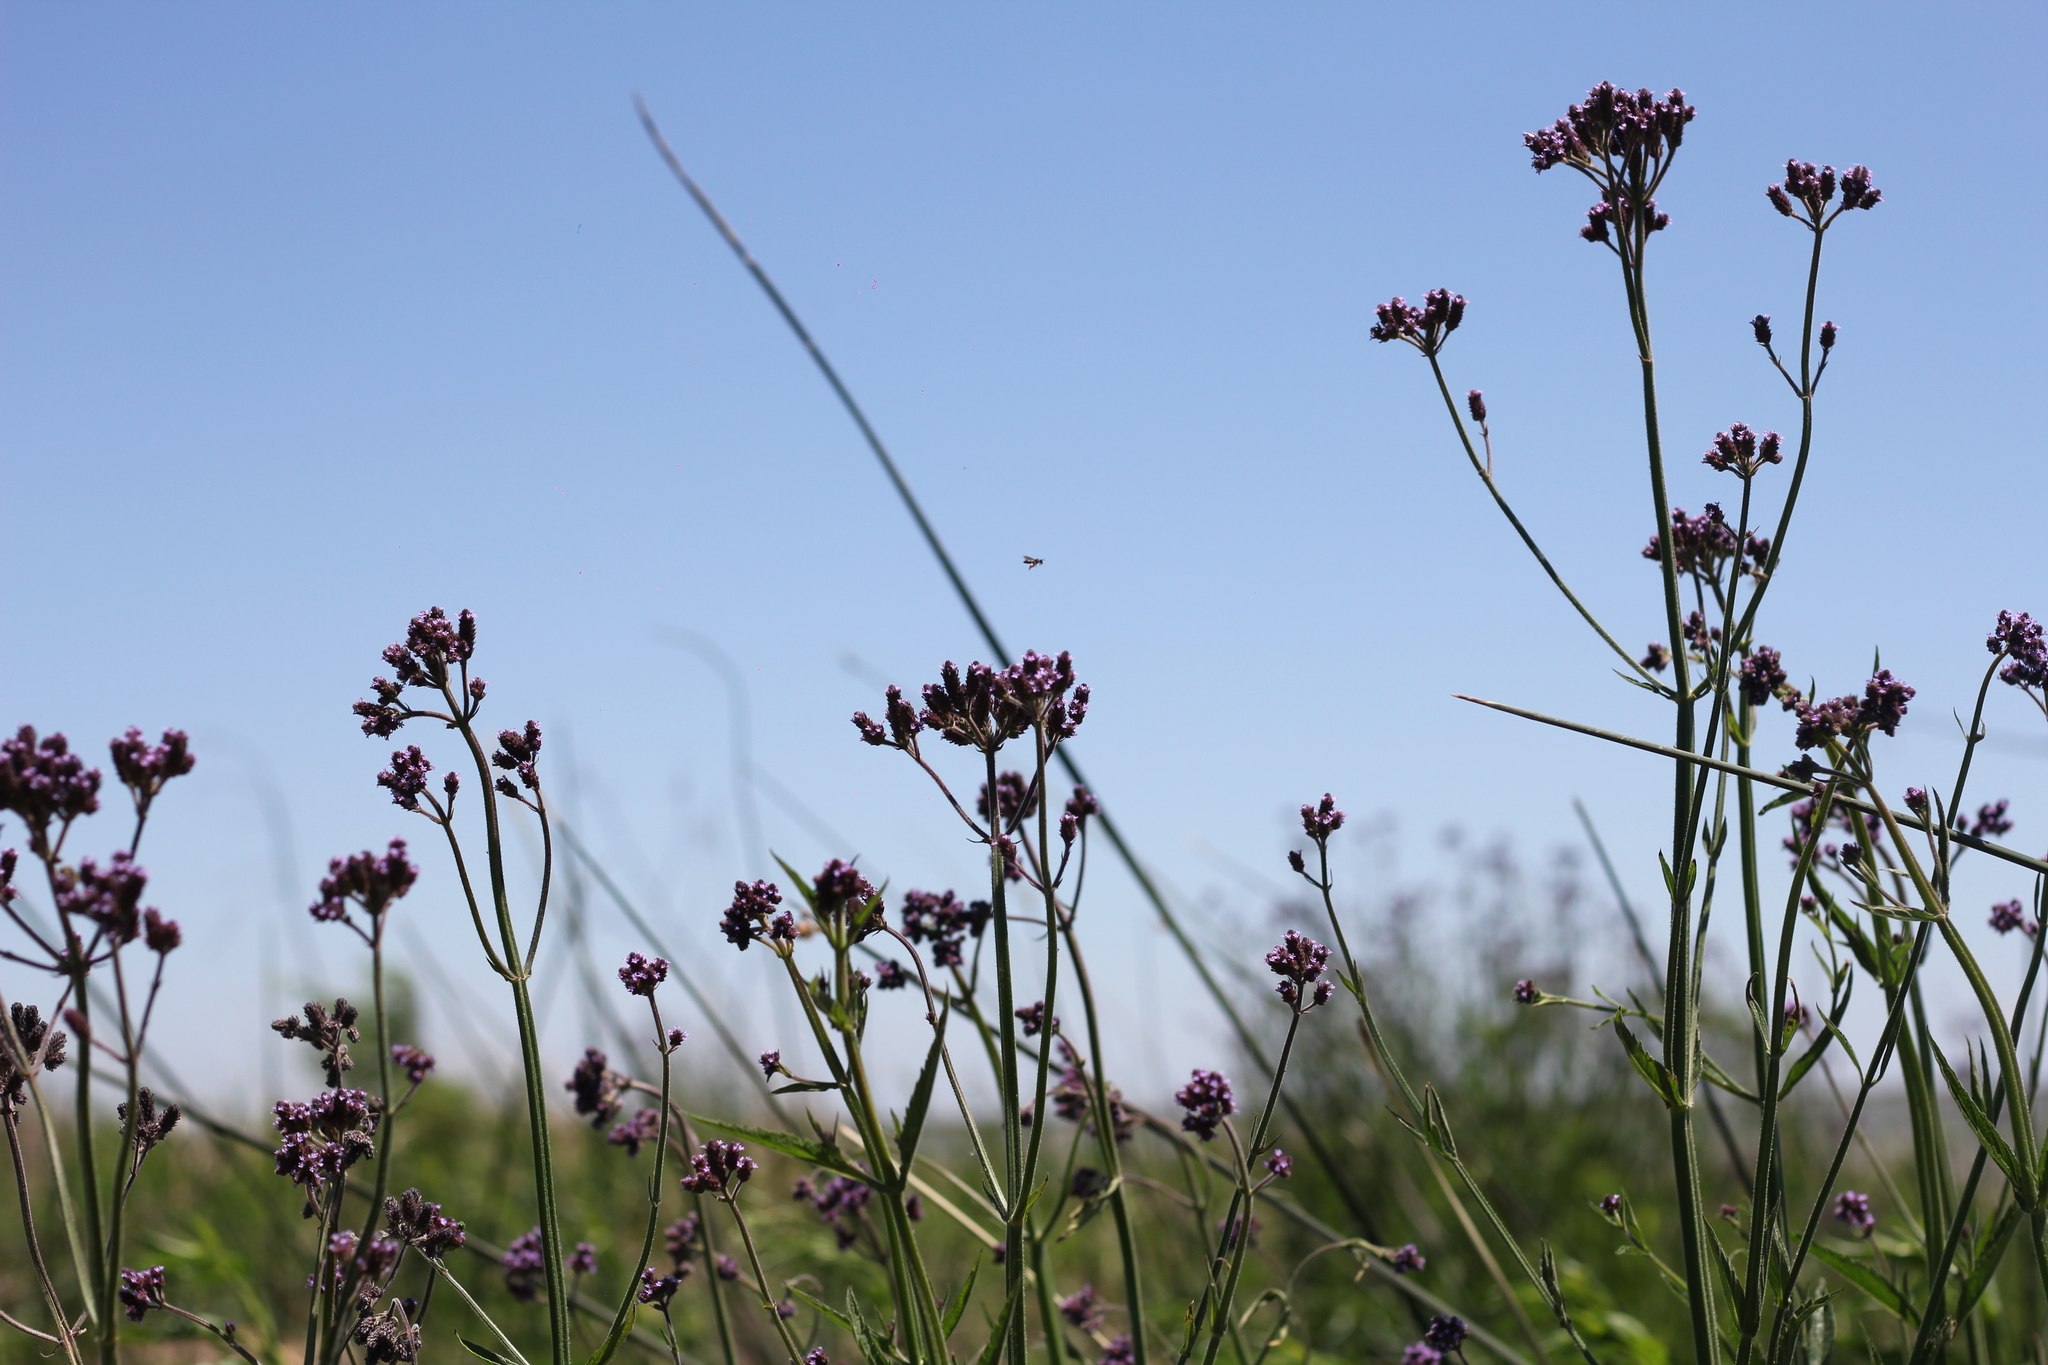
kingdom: Plantae
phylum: Tracheophyta
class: Magnoliopsida
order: Lamiales
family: Verbenaceae
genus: Verbena
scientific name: Verbena bonariensis
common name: Purpletop vervain
